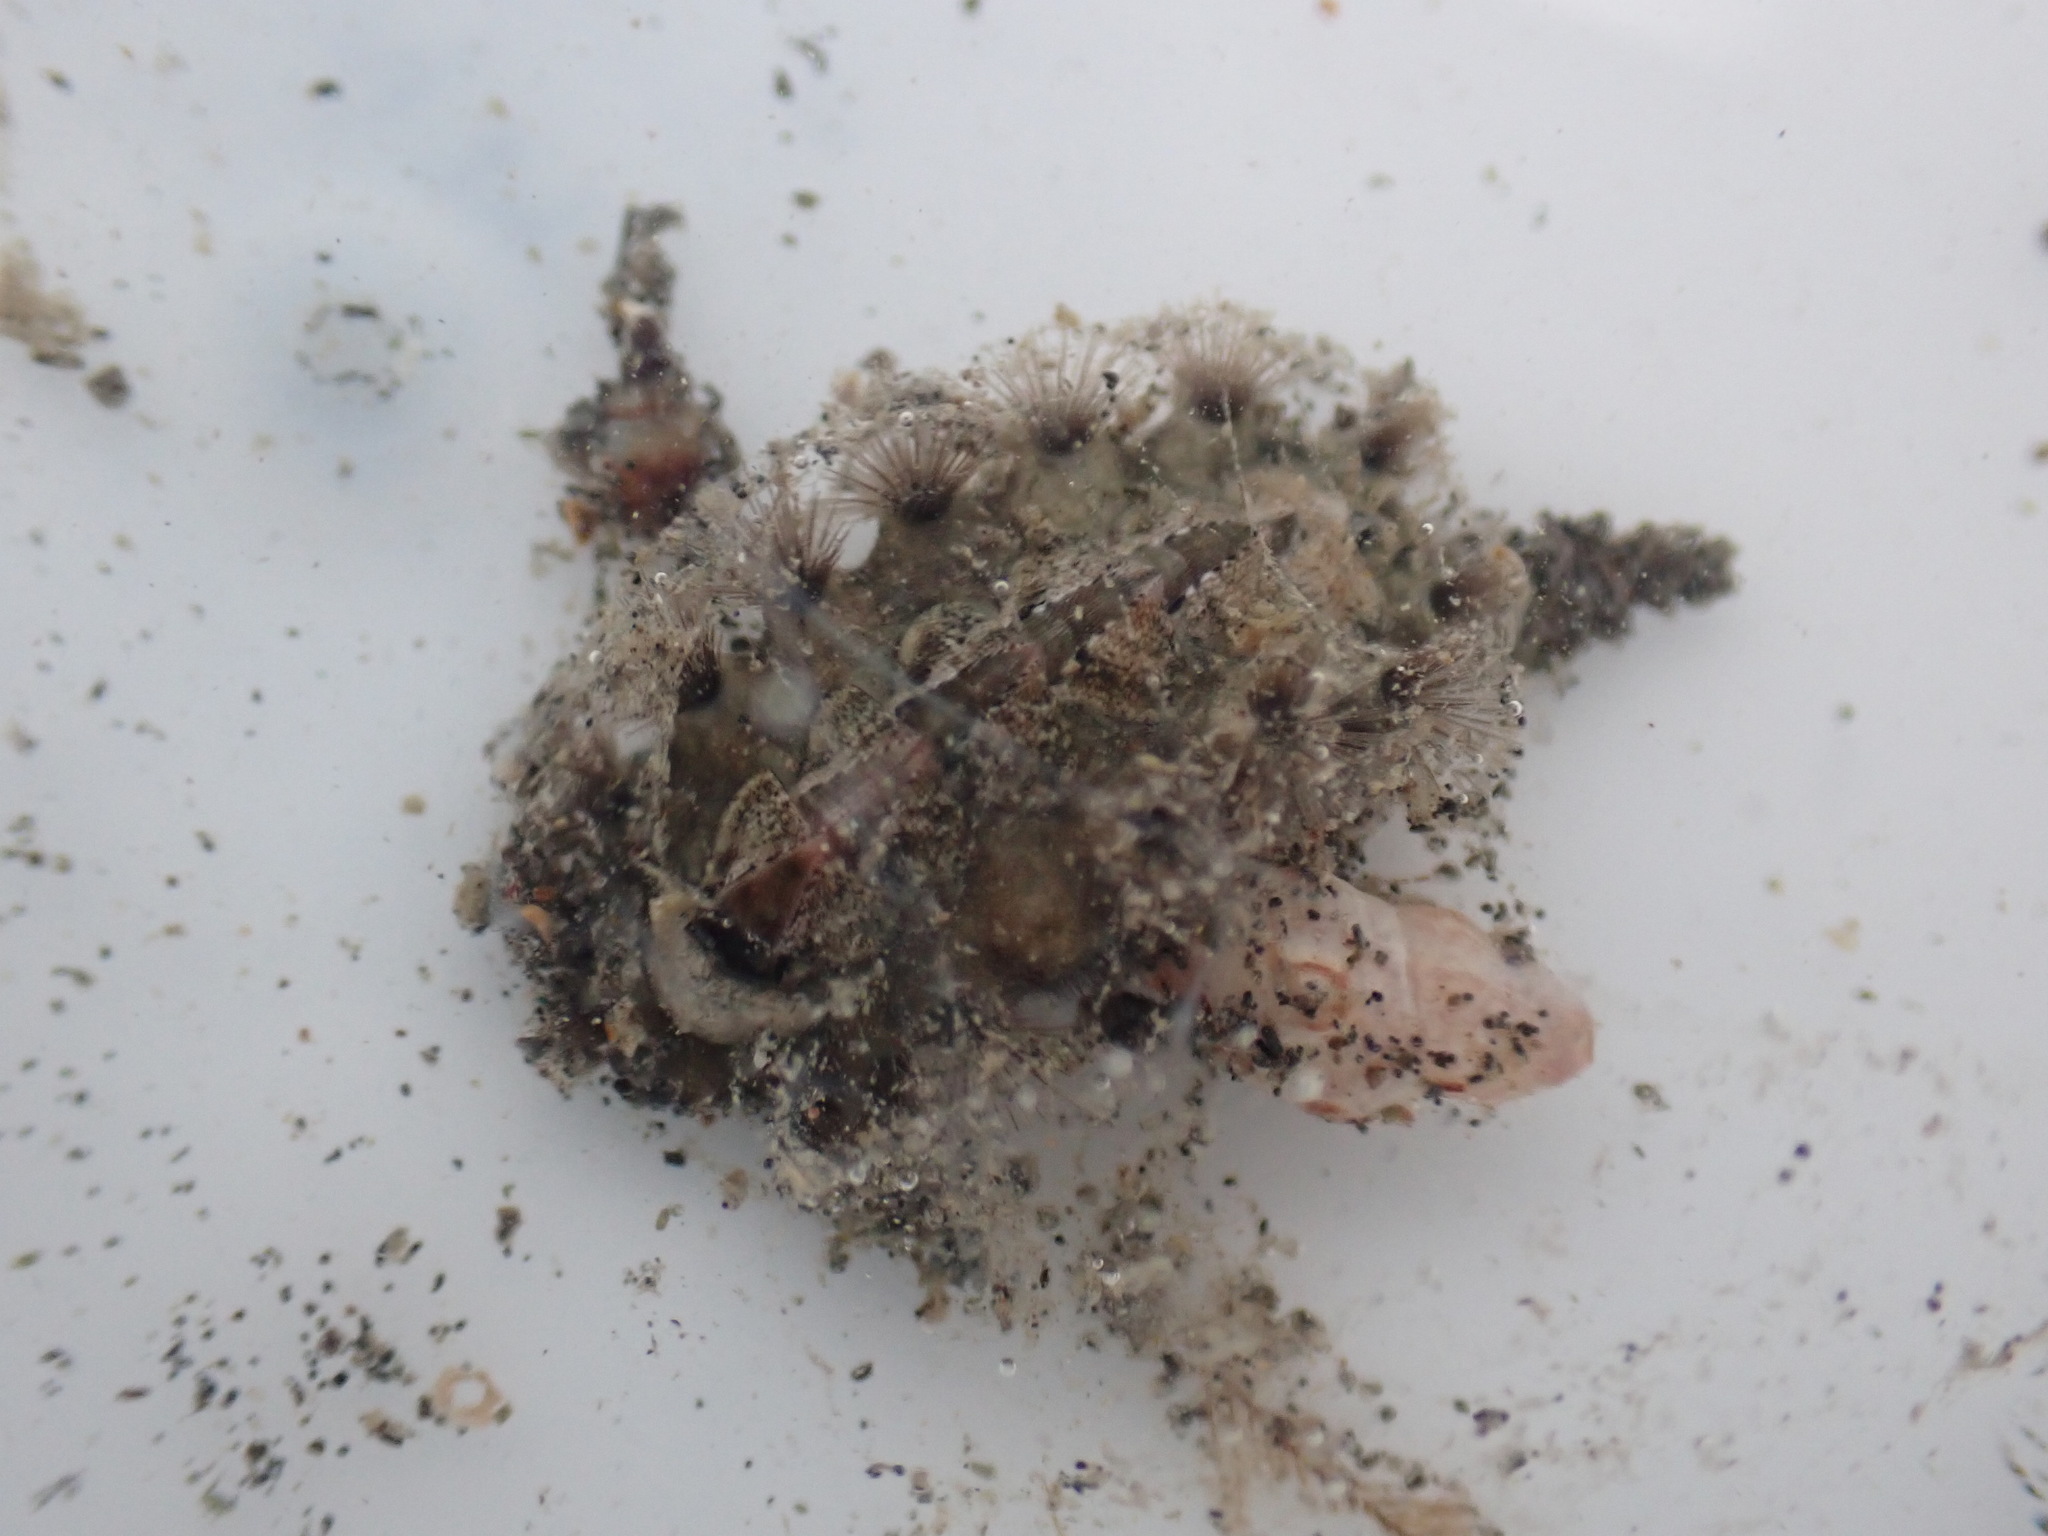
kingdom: Animalia
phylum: Mollusca
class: Polyplacophora
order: Chitonida
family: Acanthochitonidae
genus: Acanthochitona
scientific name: Acanthochitona zelandica
